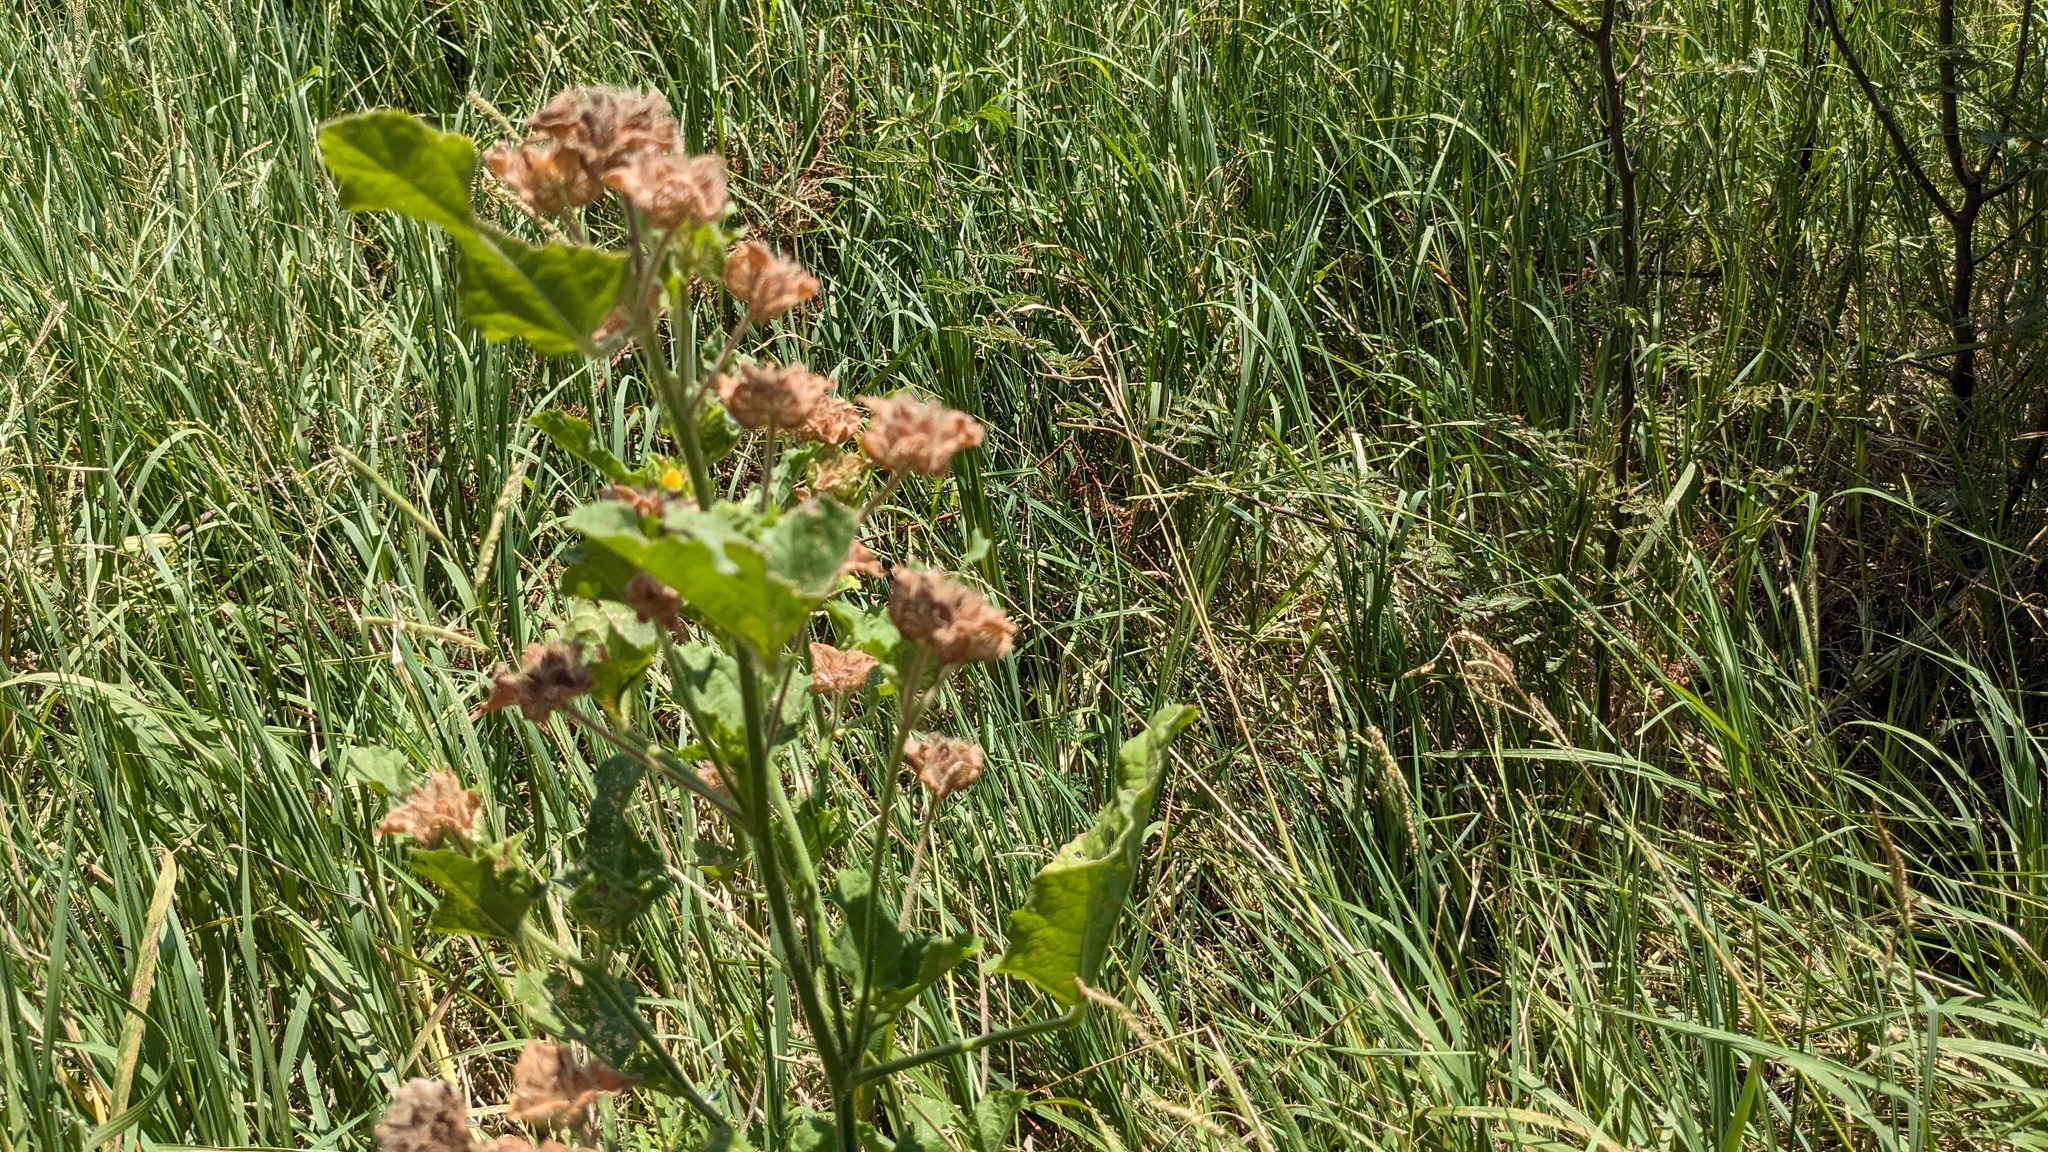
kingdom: Plantae
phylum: Tracheophyta
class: Magnoliopsida
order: Malvales
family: Malvaceae
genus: Malachra
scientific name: Malachra capitata
